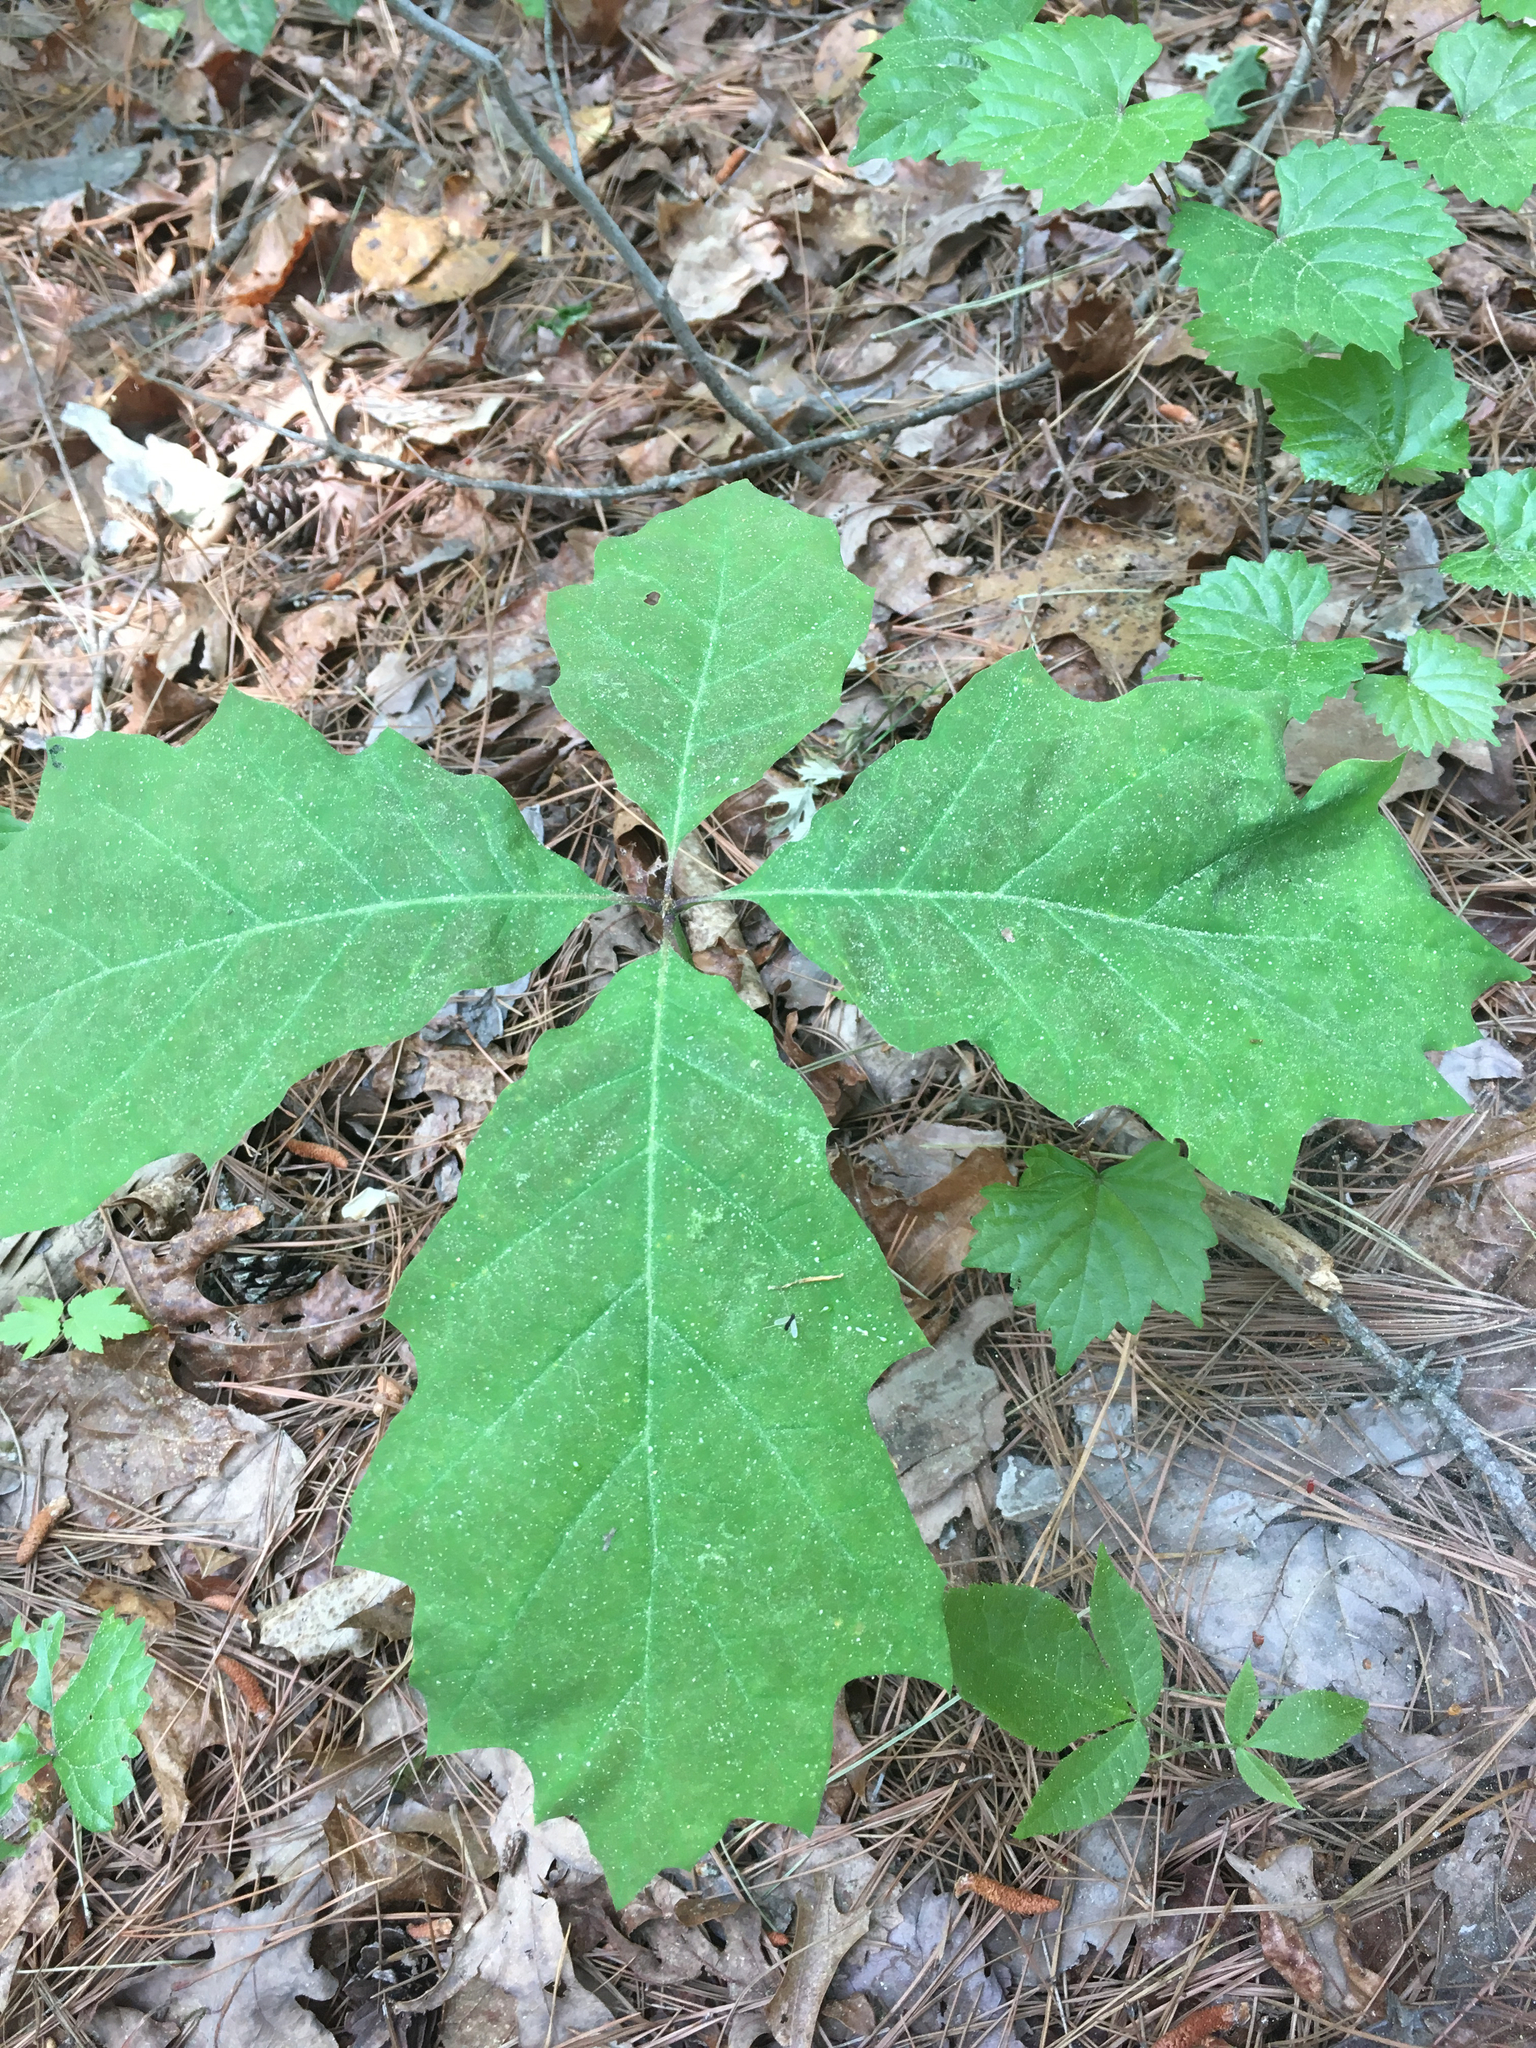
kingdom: Plantae
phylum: Tracheophyta
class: Magnoliopsida
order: Fagales
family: Fagaceae
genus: Quercus
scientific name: Quercus rubra
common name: Red oak
